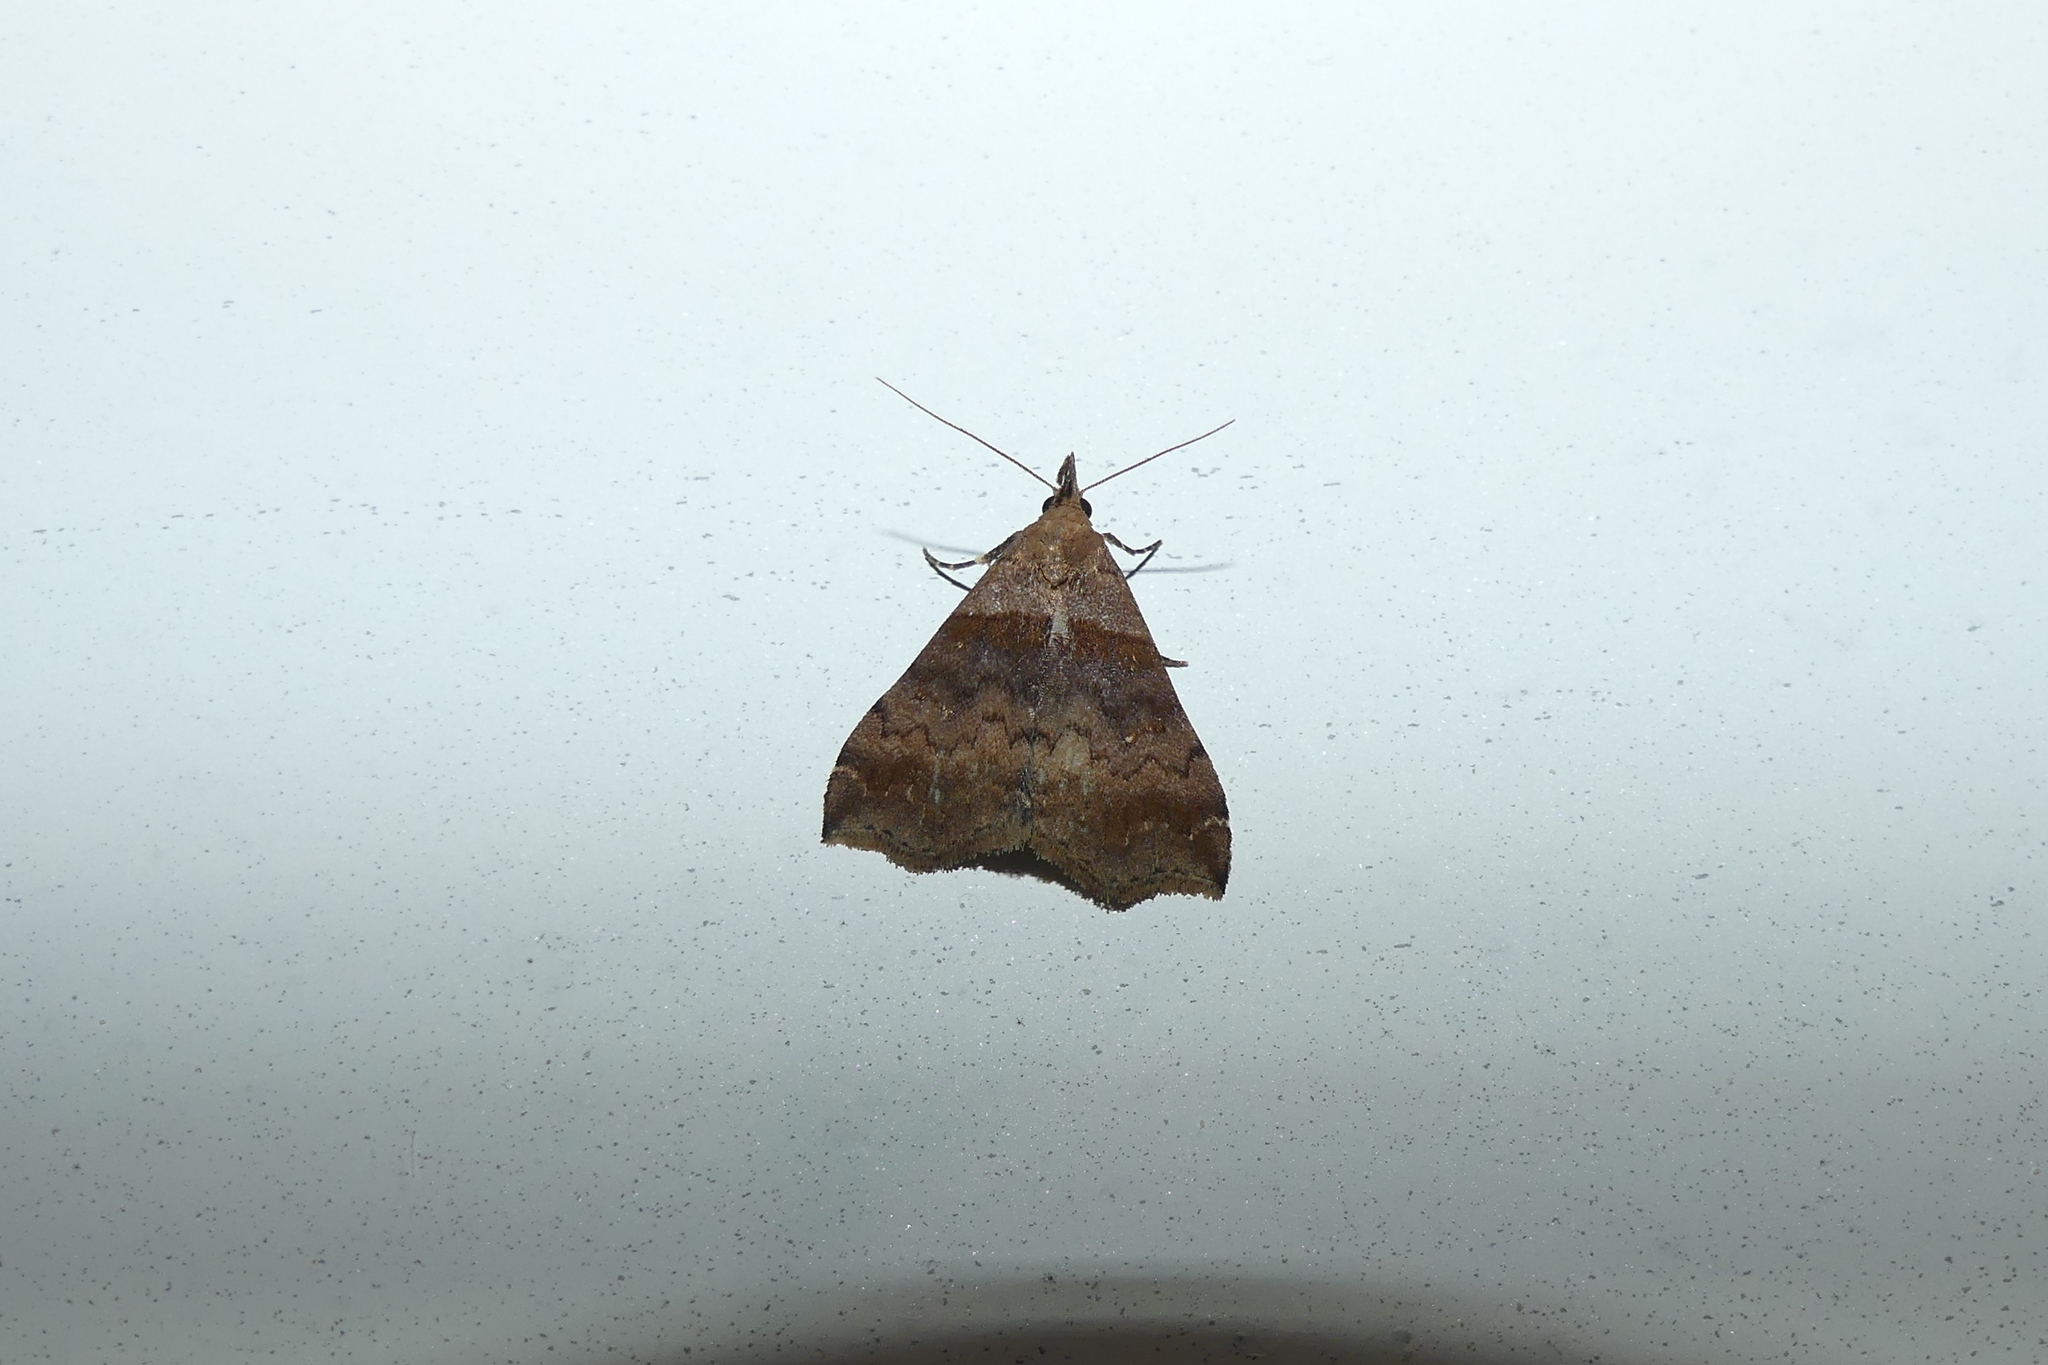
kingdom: Animalia
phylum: Arthropoda
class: Insecta
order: Lepidoptera
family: Erebidae
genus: Lascoria
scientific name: Lascoria ambigualis
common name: Ambiguous moth
